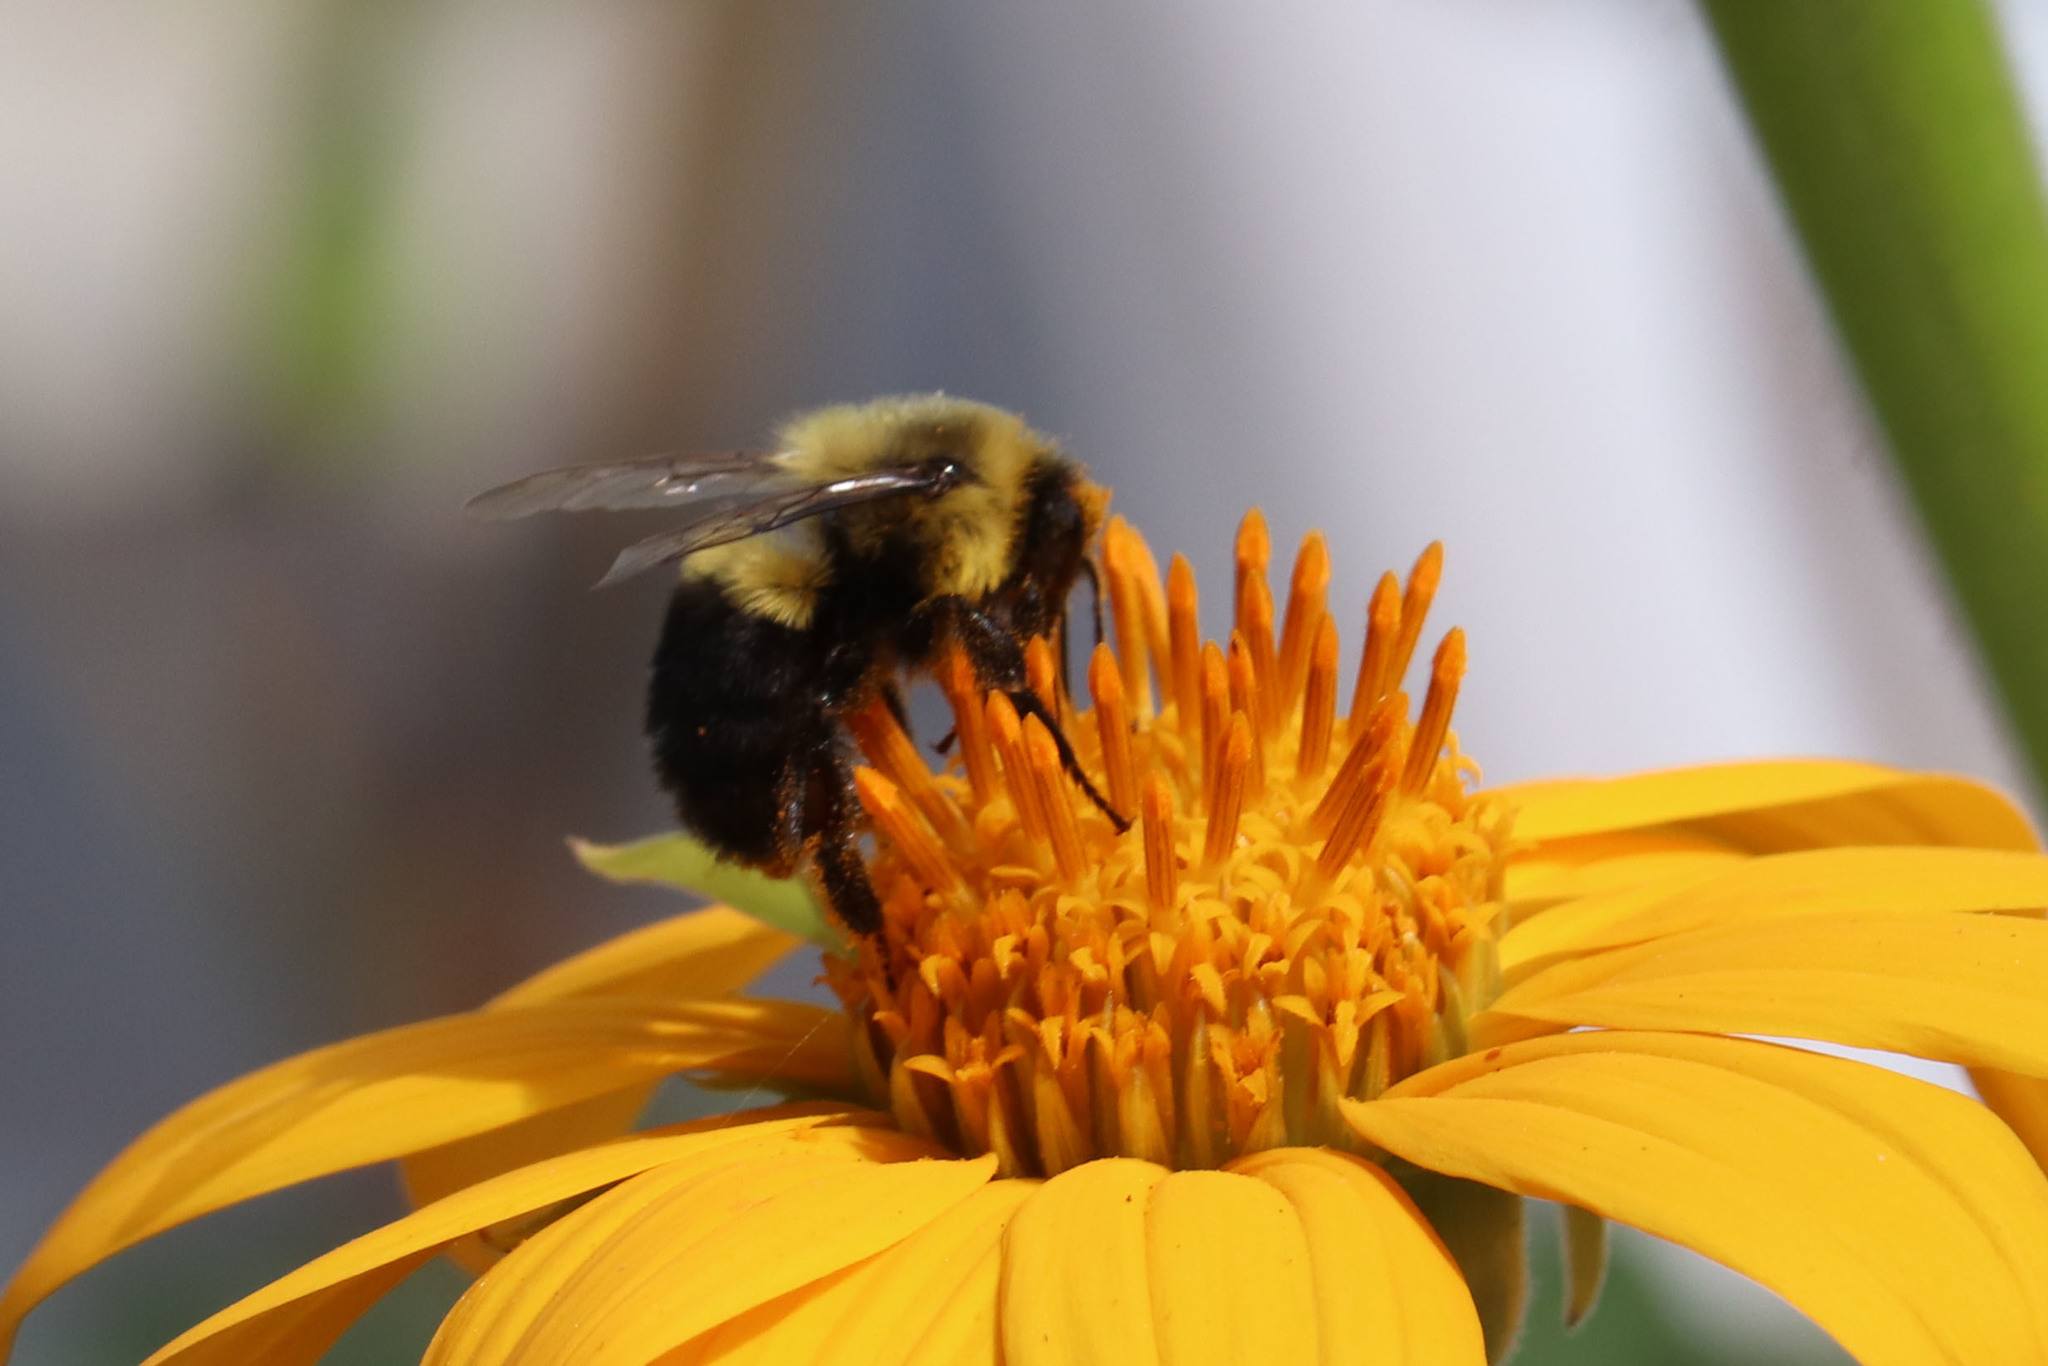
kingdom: Animalia
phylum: Arthropoda
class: Insecta
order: Hymenoptera
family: Apidae
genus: Bombus
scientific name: Bombus impatiens
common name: Common eastern bumble bee
